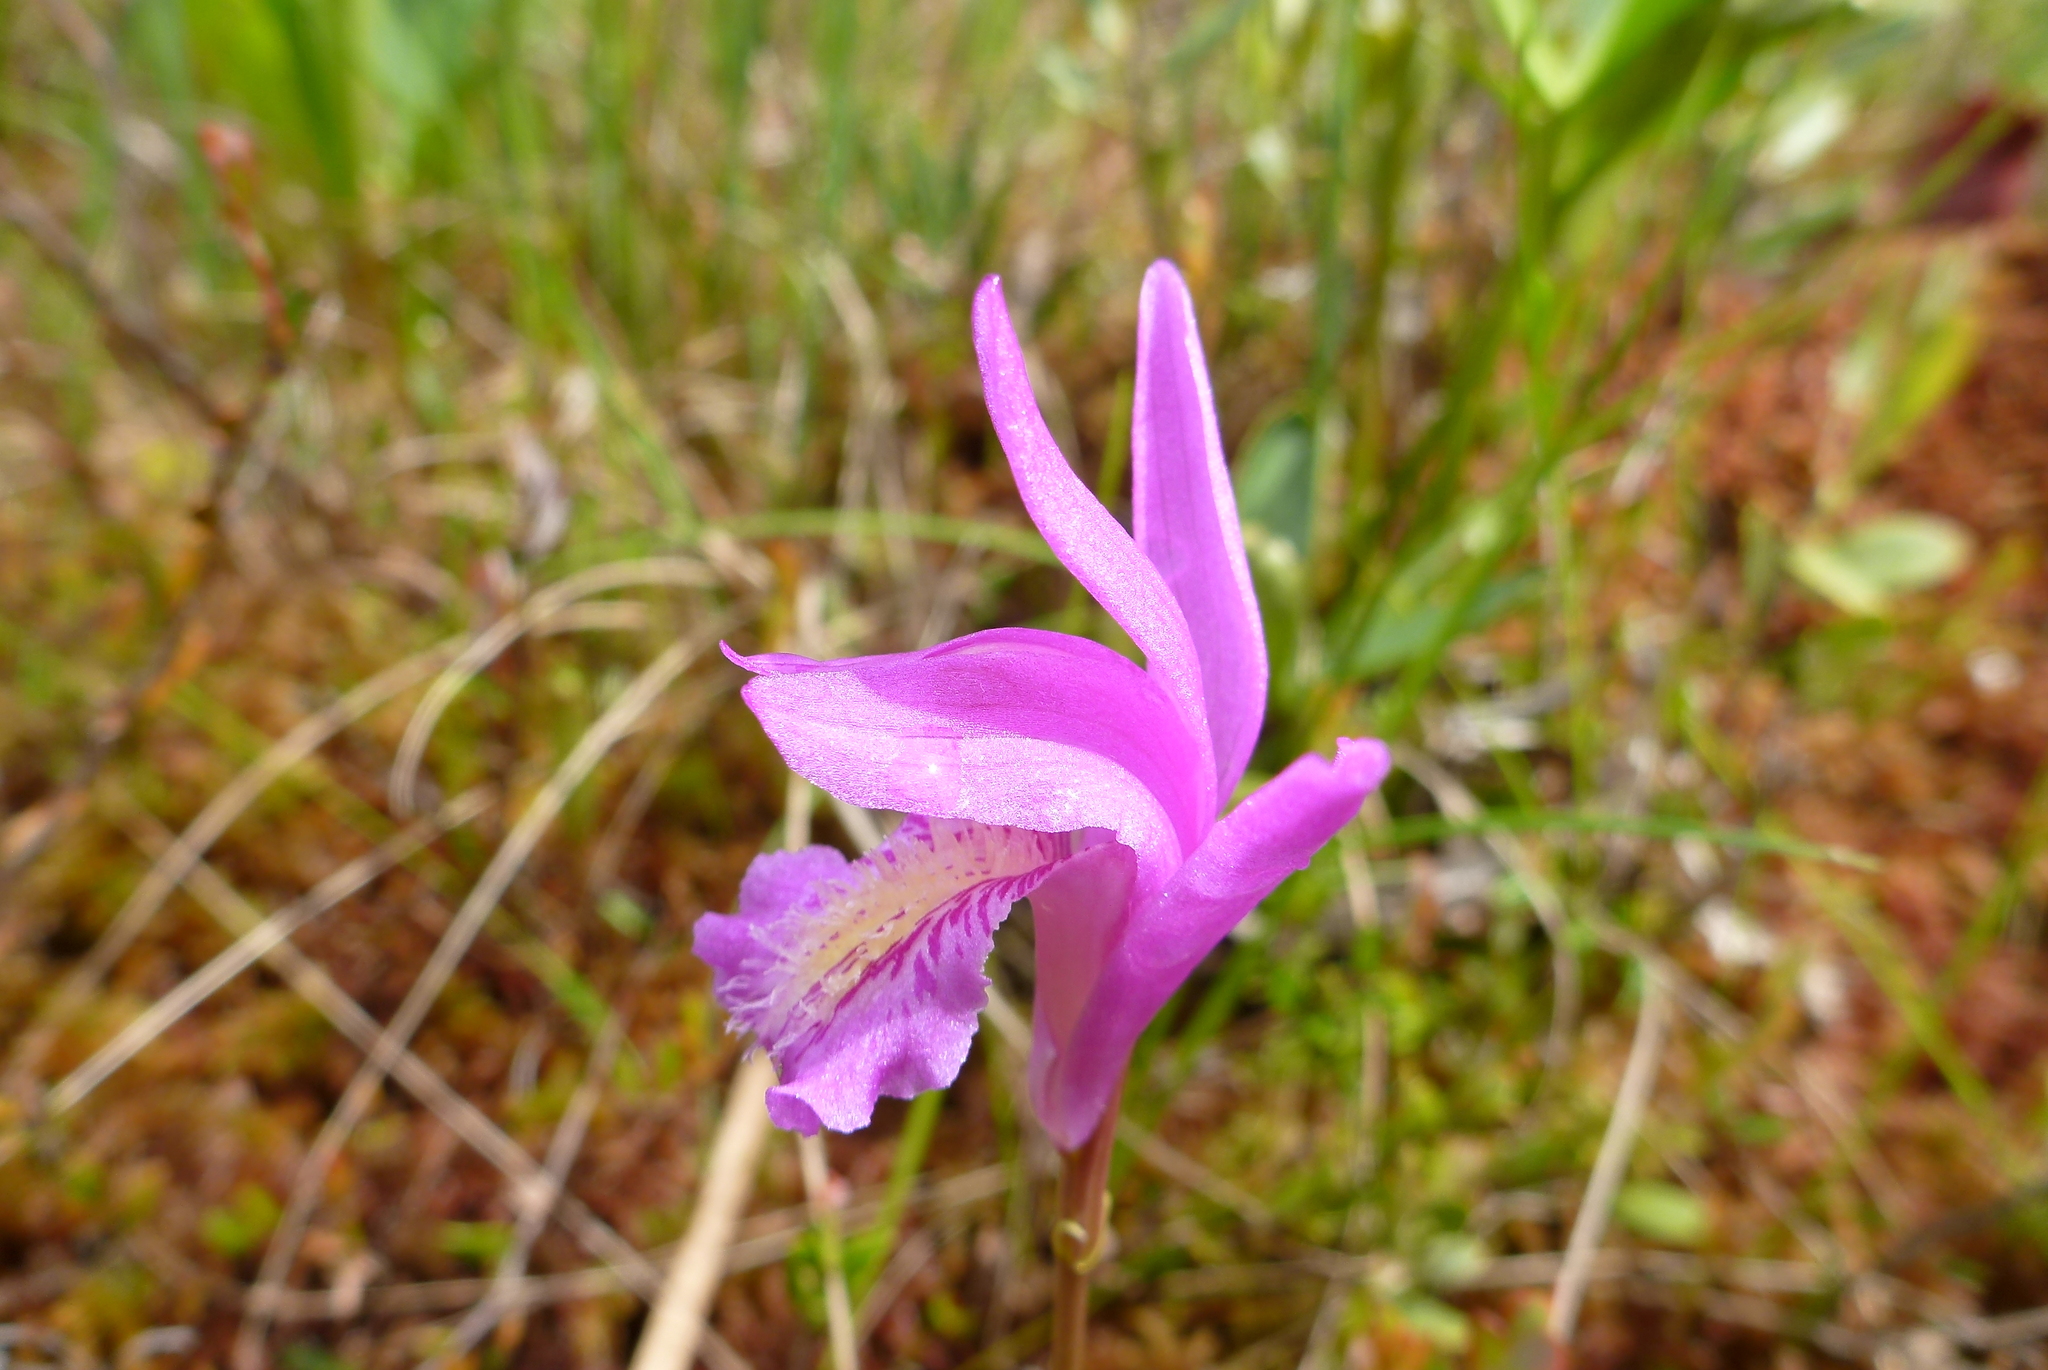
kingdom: Plantae
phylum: Tracheophyta
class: Liliopsida
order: Asparagales
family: Orchidaceae
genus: Arethusa
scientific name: Arethusa bulbosa
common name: Arethusa
